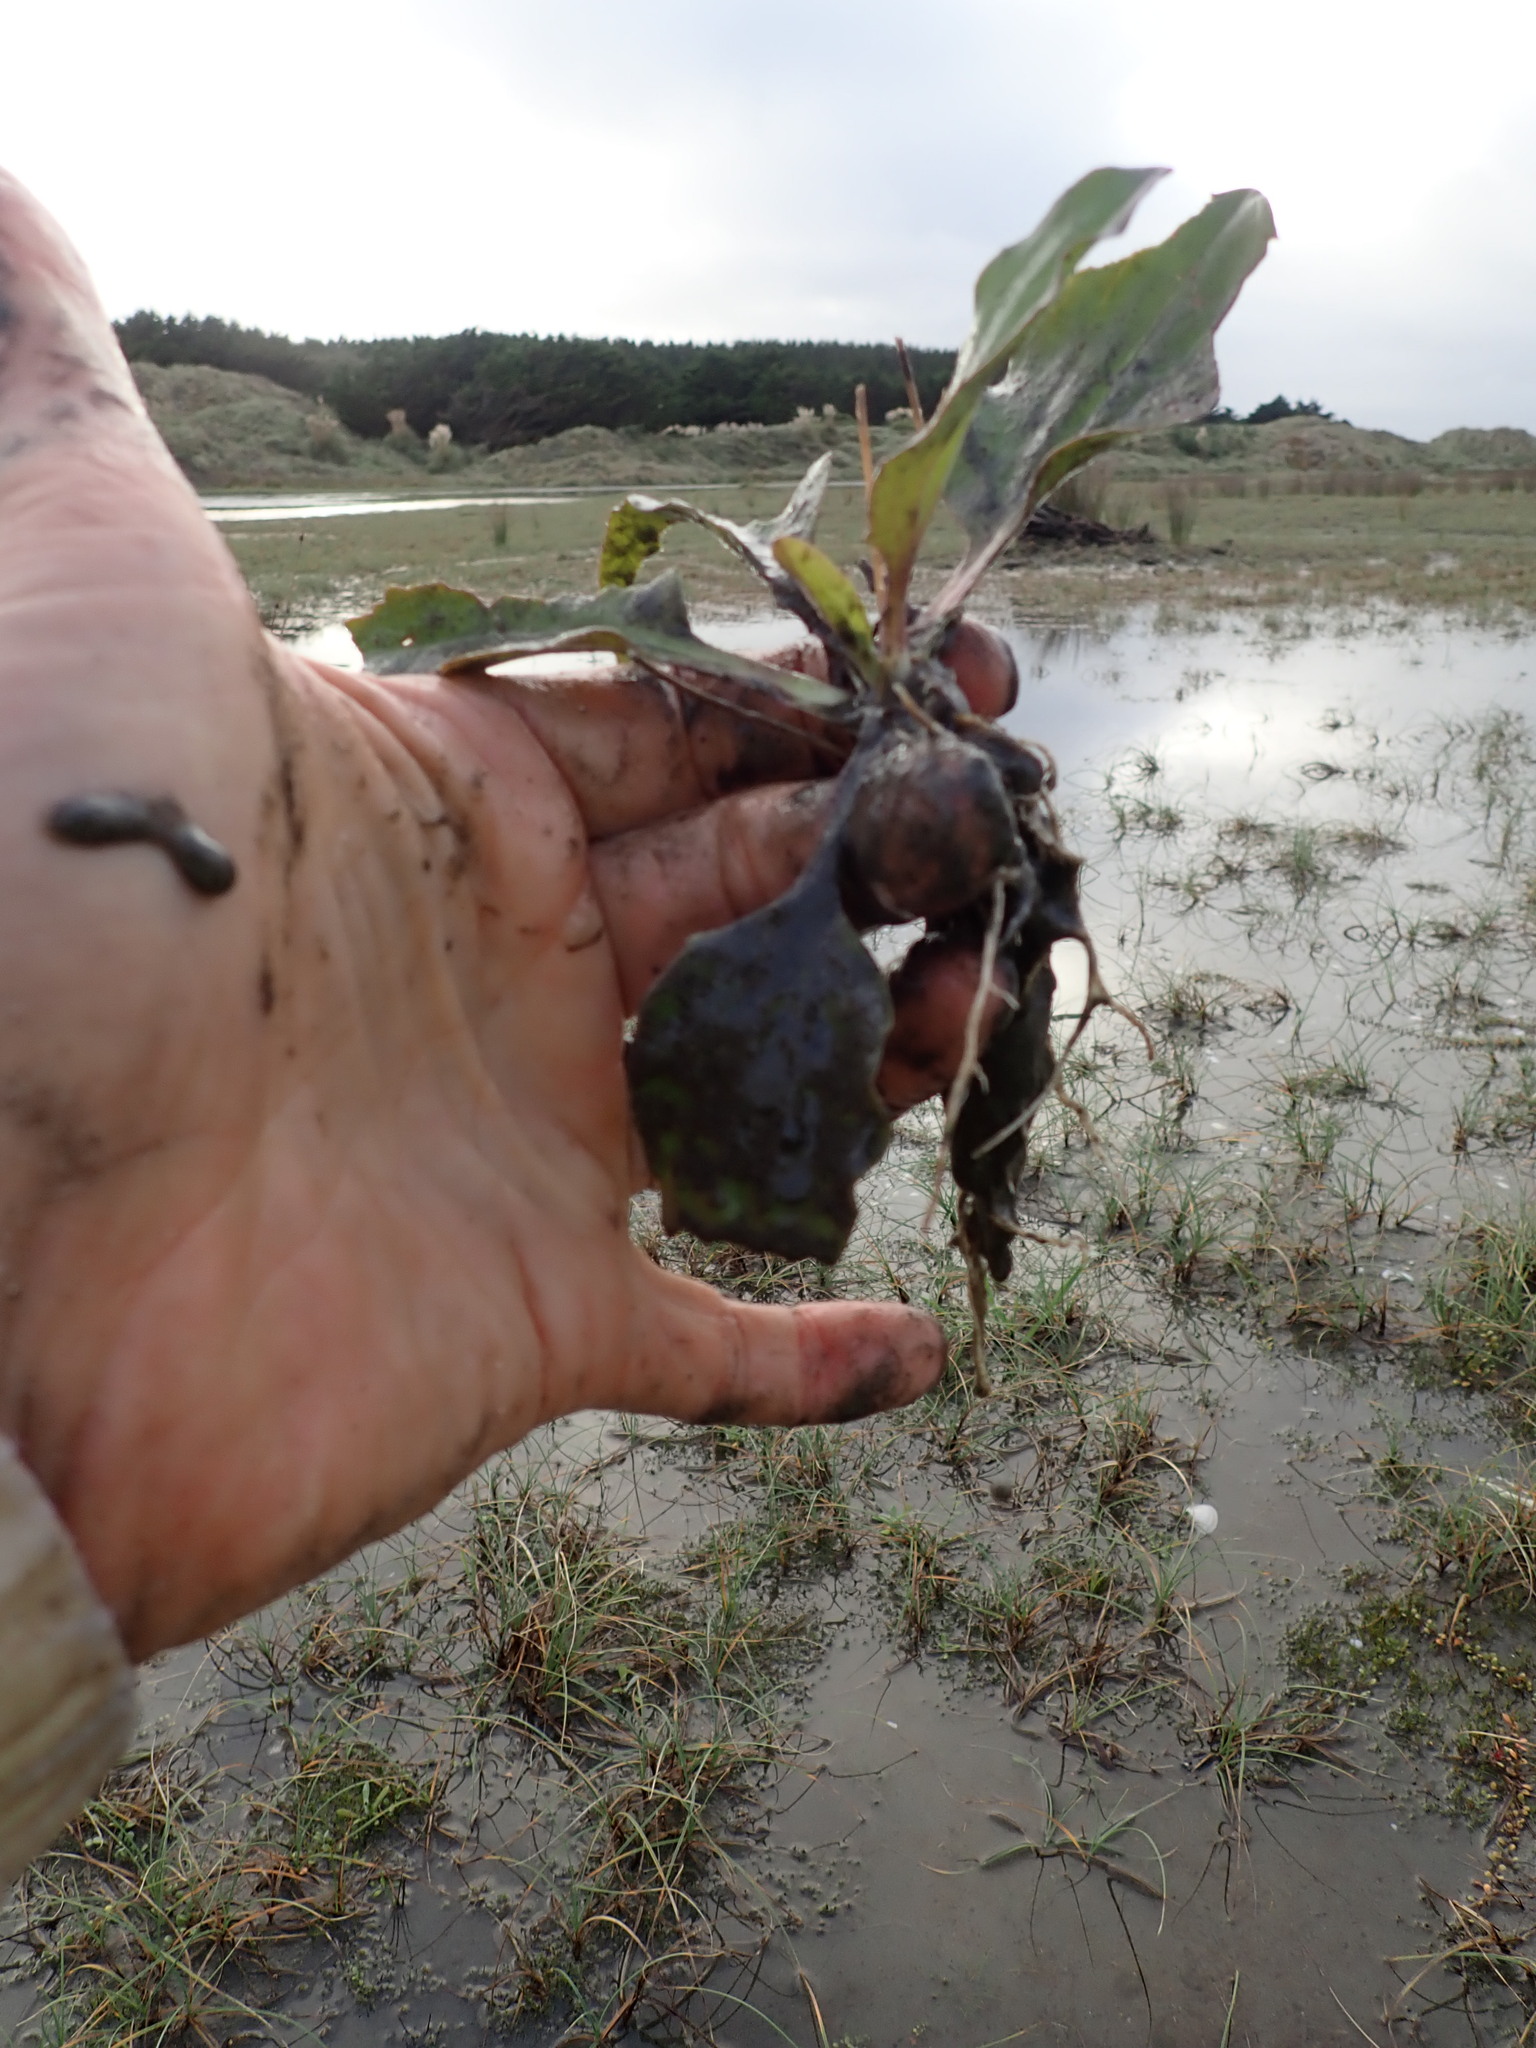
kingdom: Plantae
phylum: Tracheophyta
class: Magnoliopsida
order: Lamiales
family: Plantaginaceae
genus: Plantago
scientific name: Plantago major
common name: Common plantain
